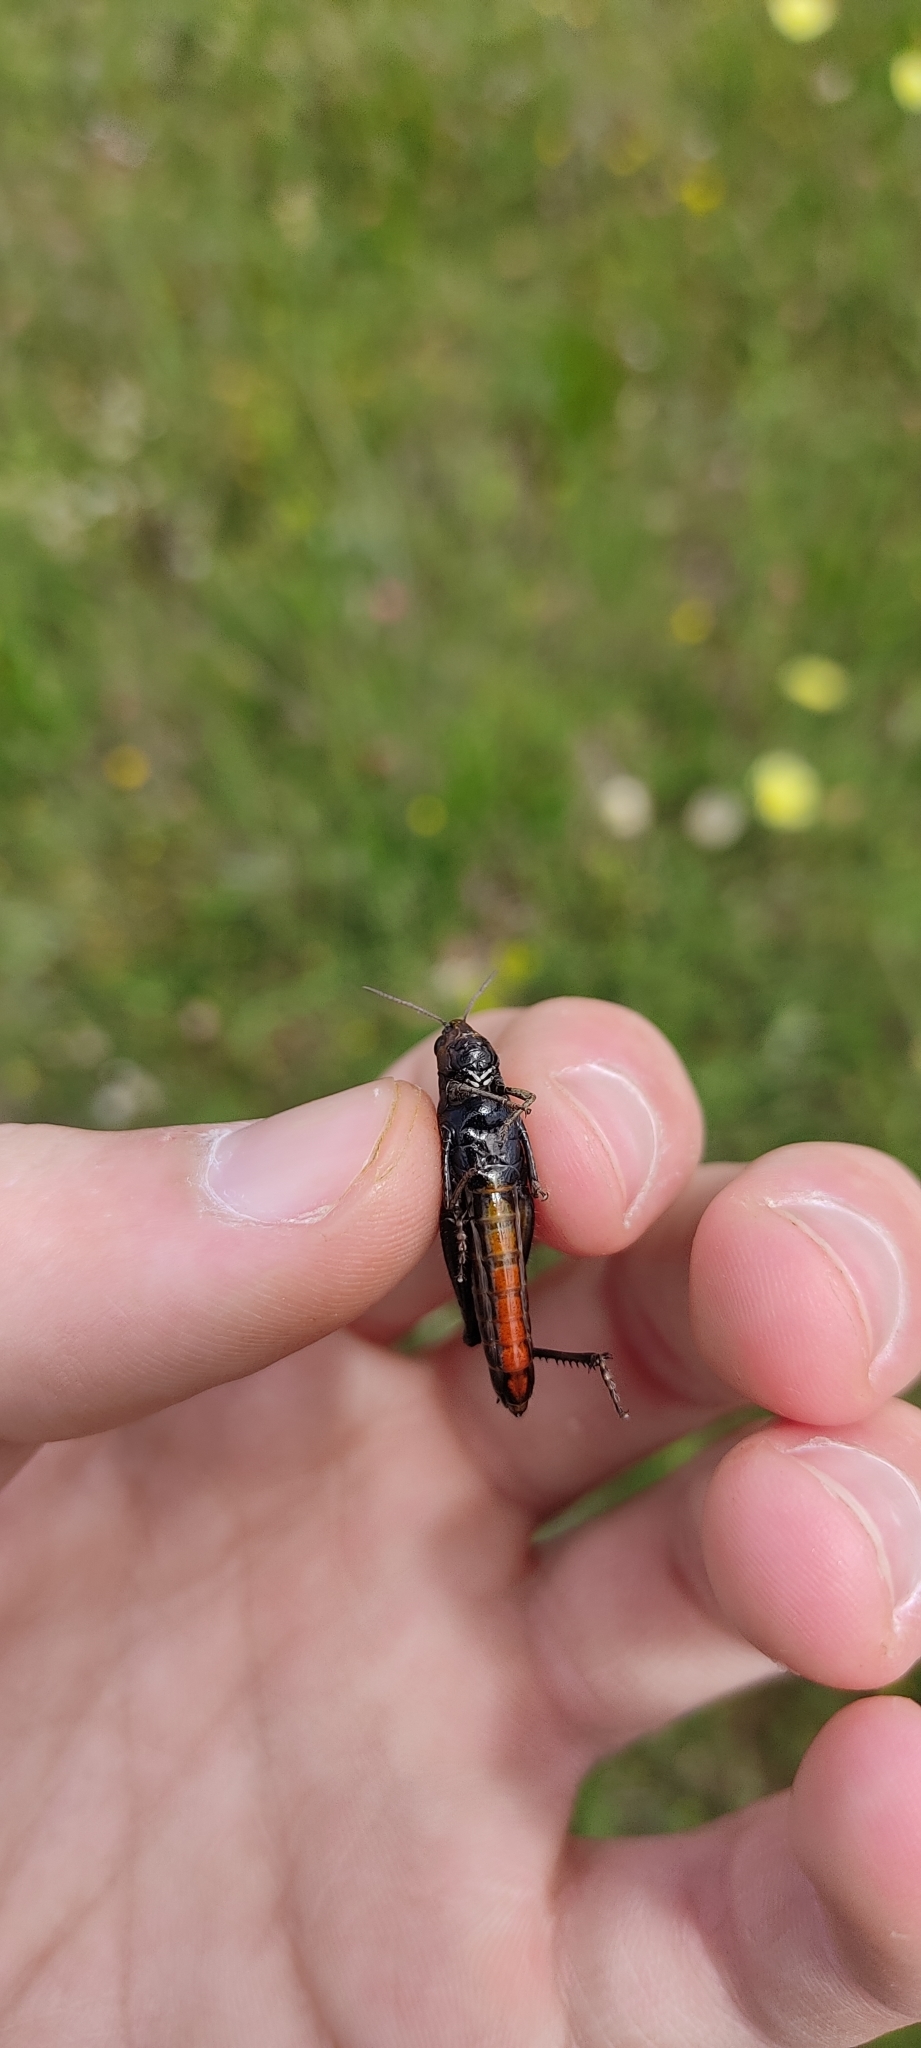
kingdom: Animalia
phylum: Arthropoda
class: Insecta
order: Orthoptera
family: Acrididae
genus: Omocestus
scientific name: Omocestus rufipes
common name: Woodland grasshopper
